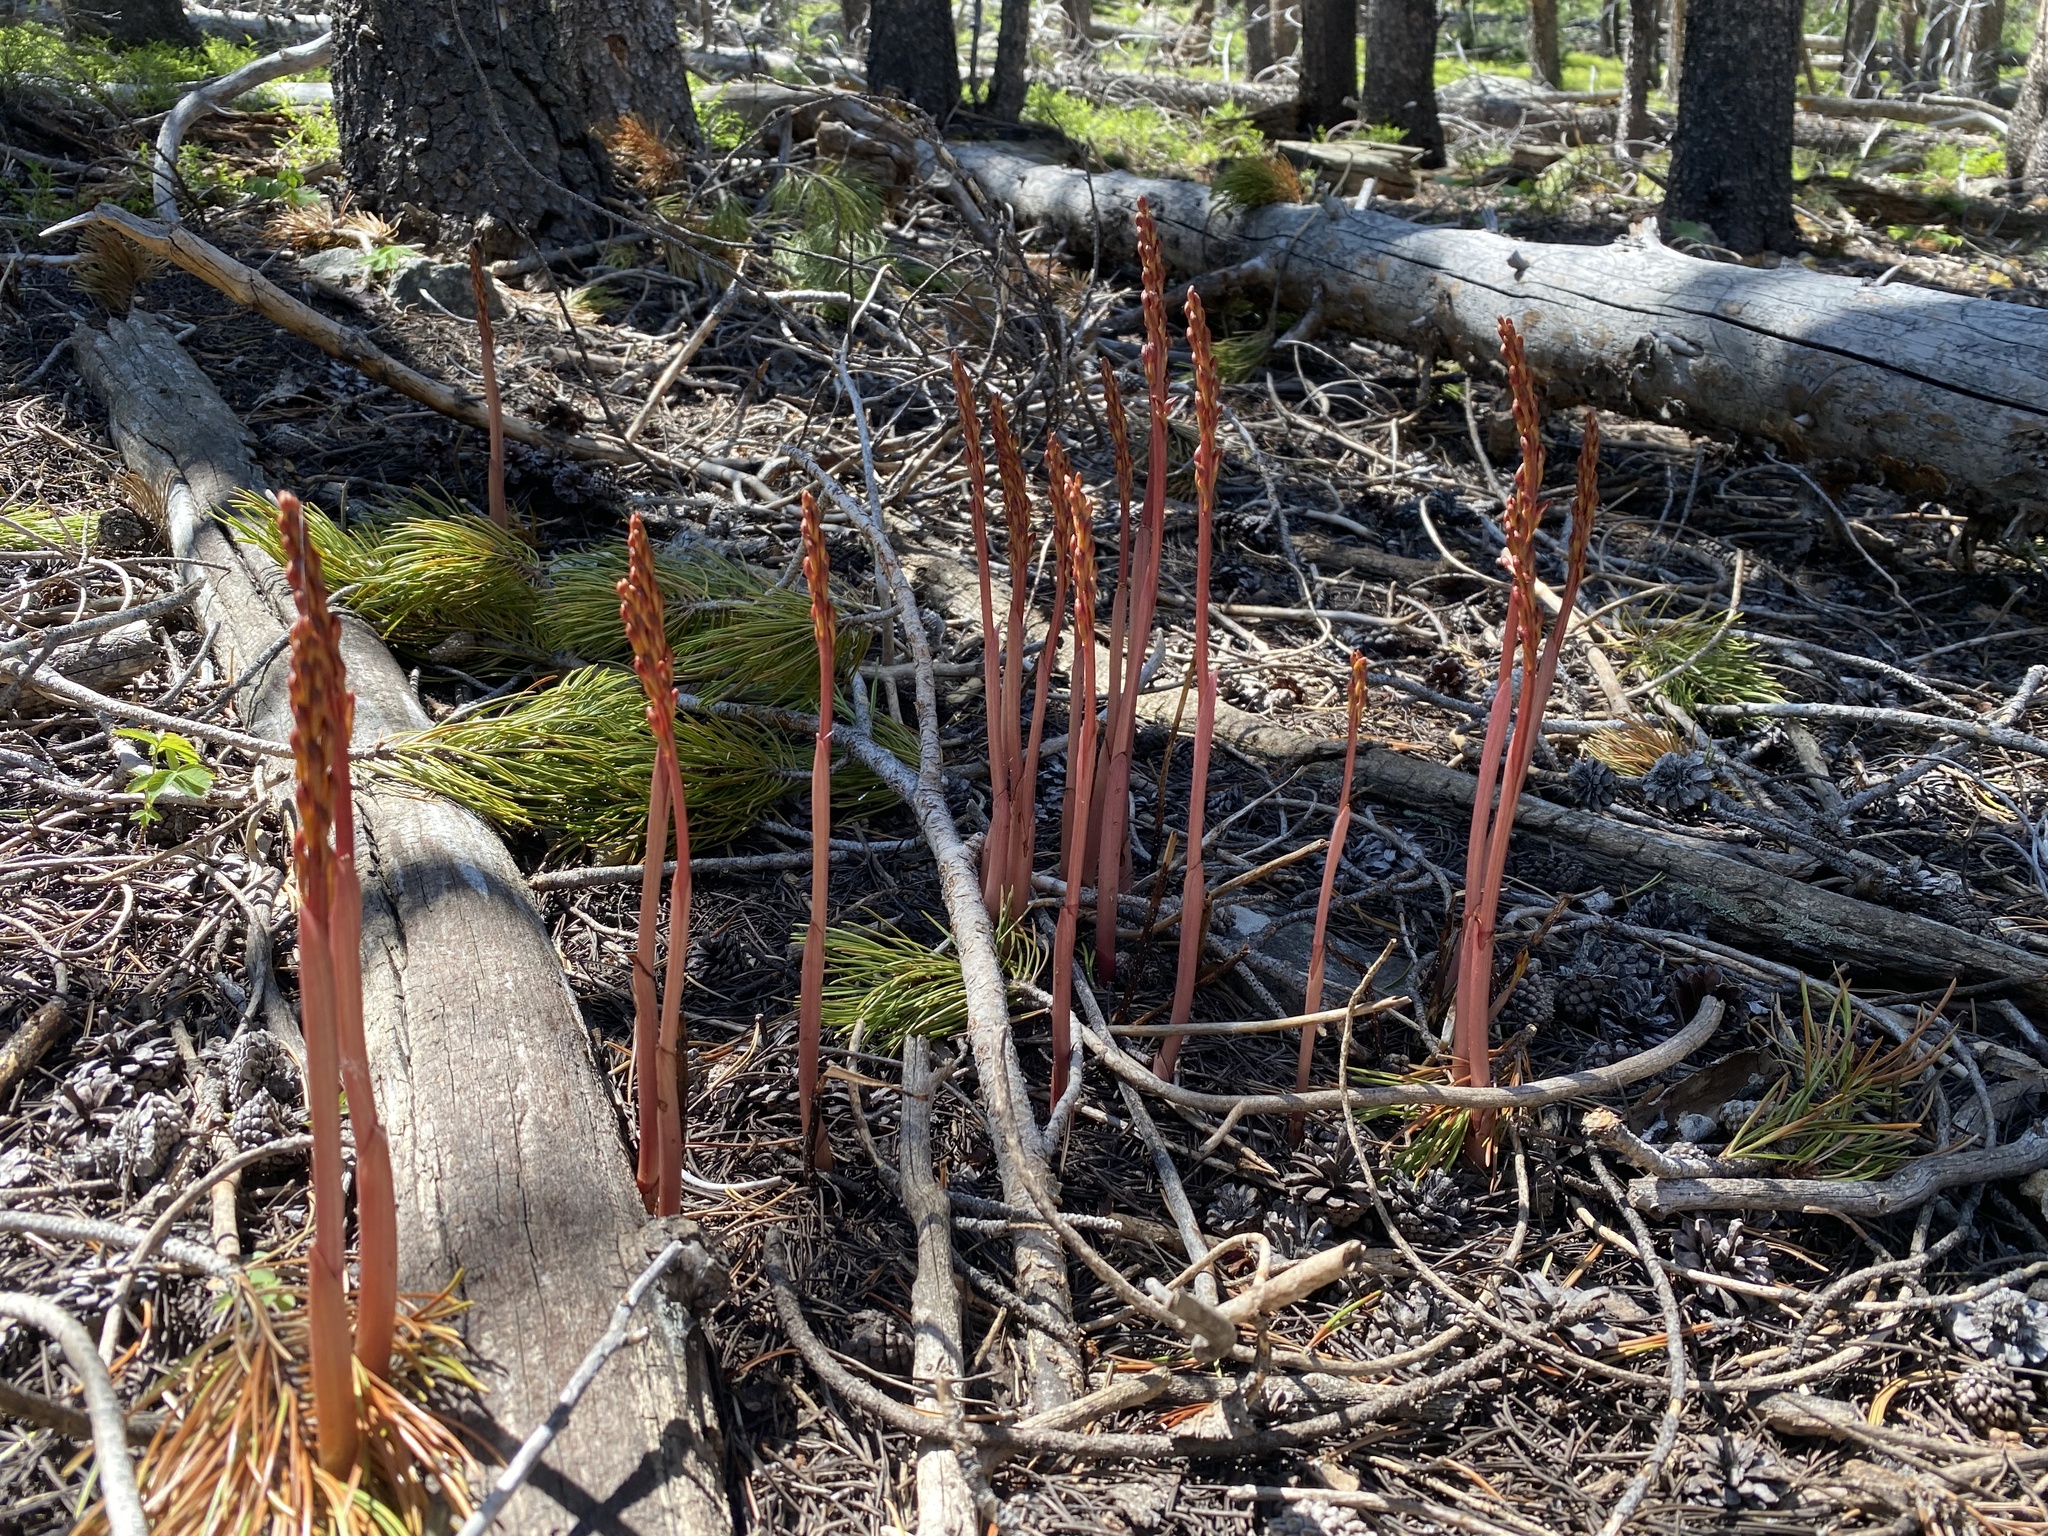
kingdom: Plantae
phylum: Tracheophyta
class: Liliopsida
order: Asparagales
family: Orchidaceae
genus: Corallorhiza
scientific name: Corallorhiza maculata
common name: Spotted coralroot
